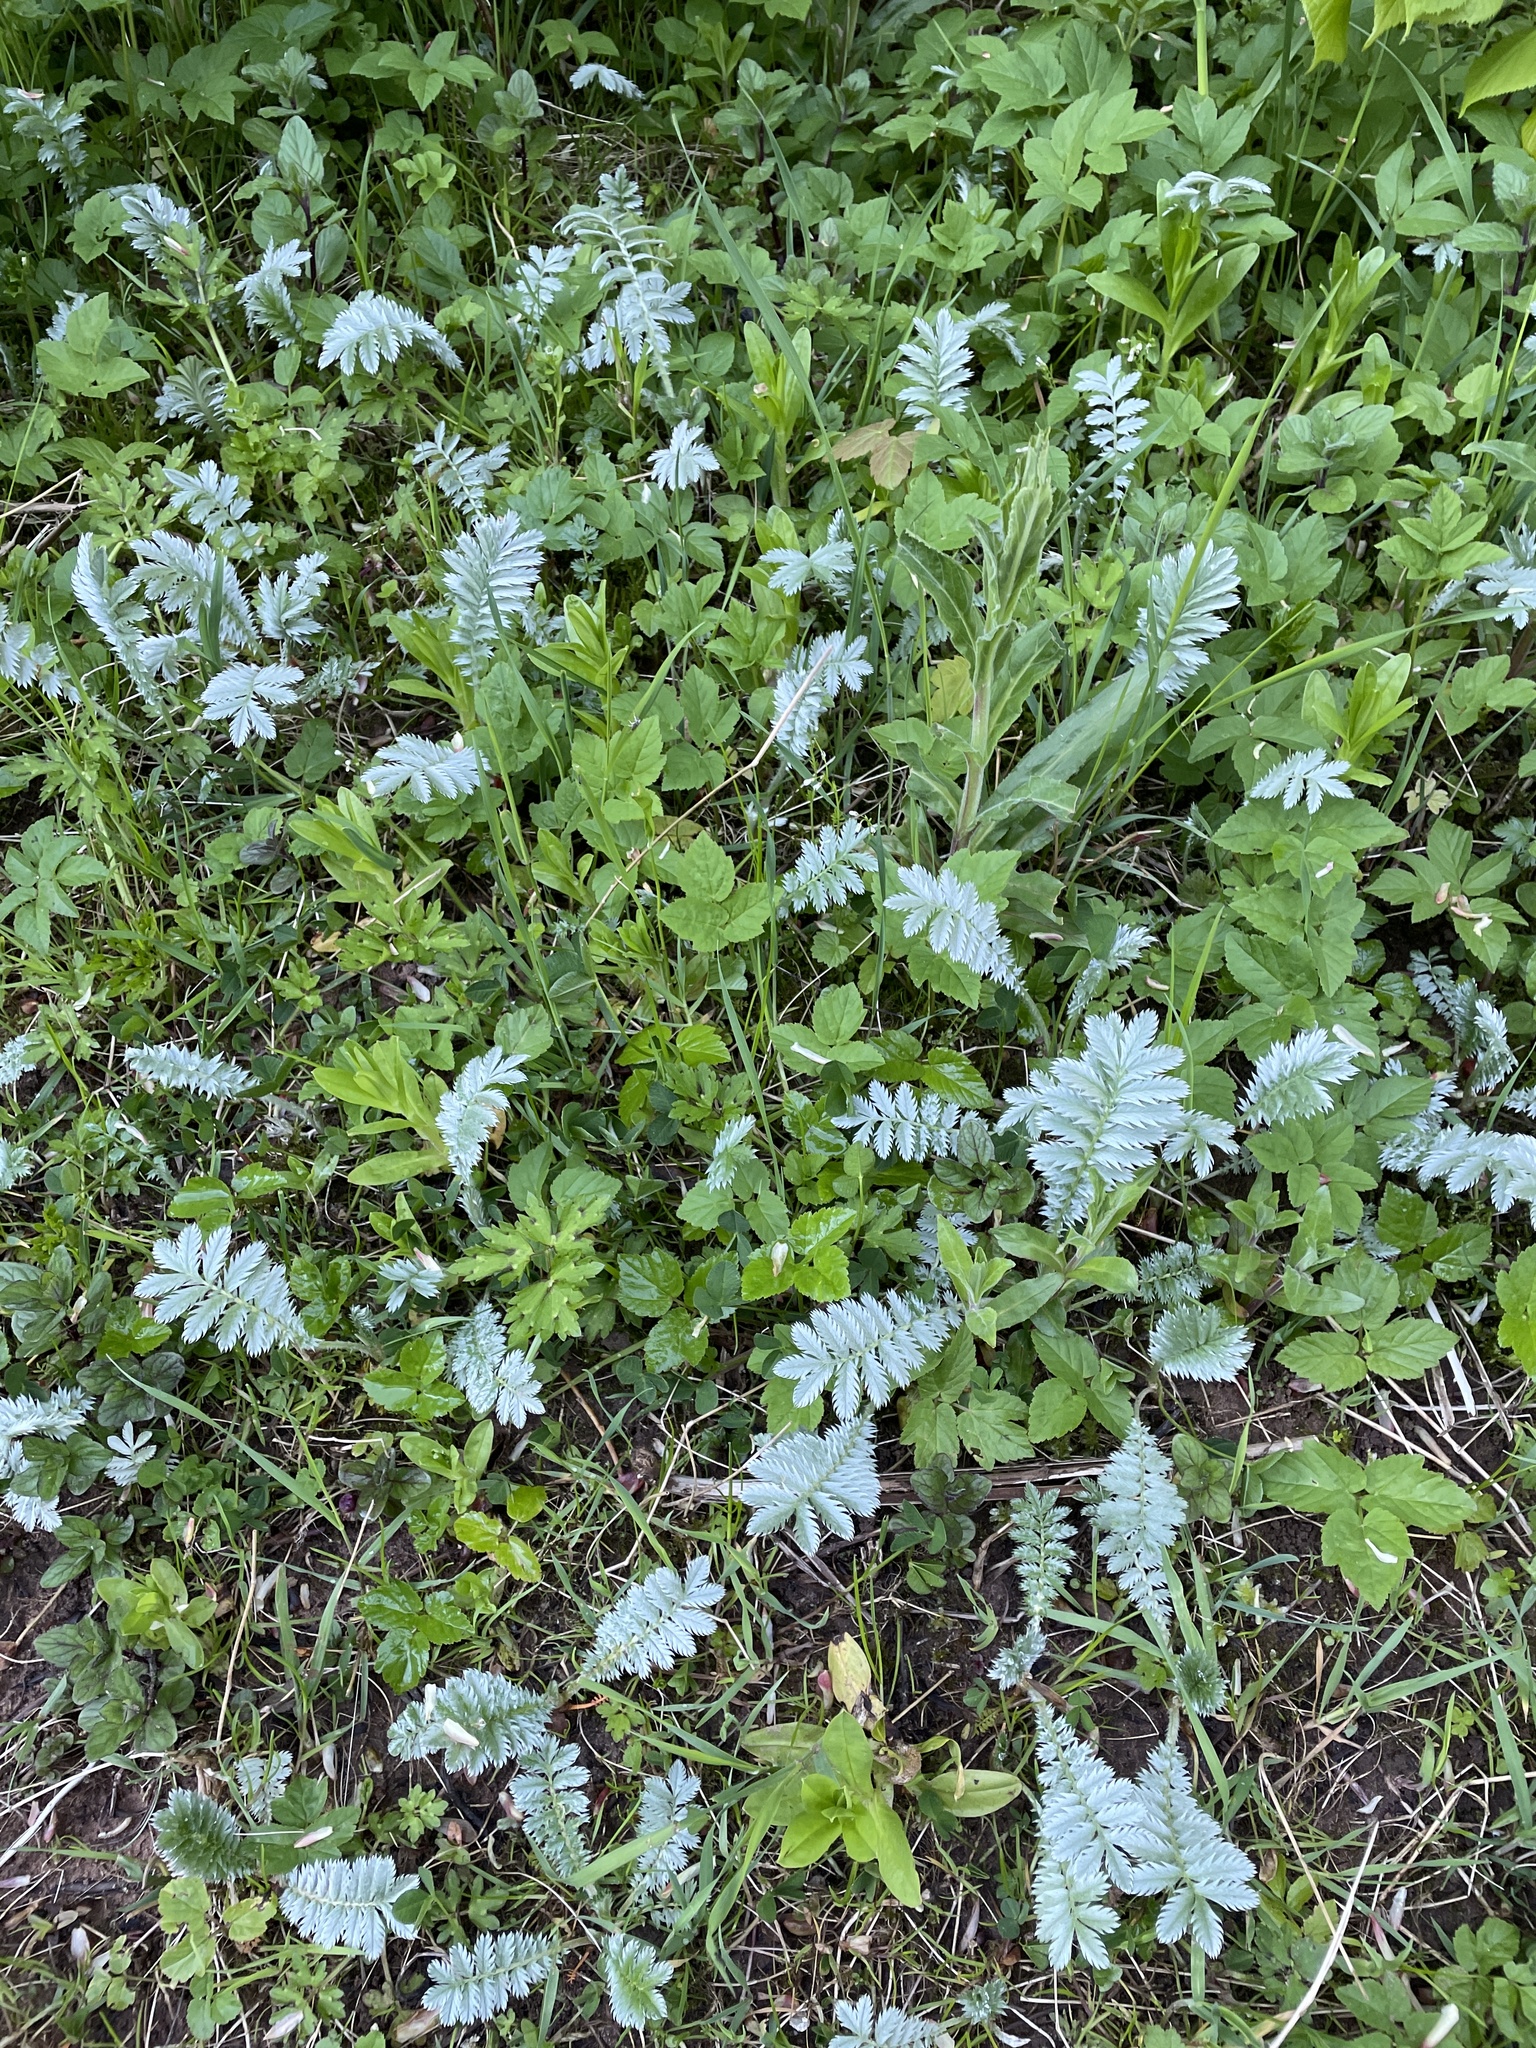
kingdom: Plantae
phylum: Tracheophyta
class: Magnoliopsida
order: Rosales
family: Rosaceae
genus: Argentina
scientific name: Argentina anserina
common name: Common silverweed
